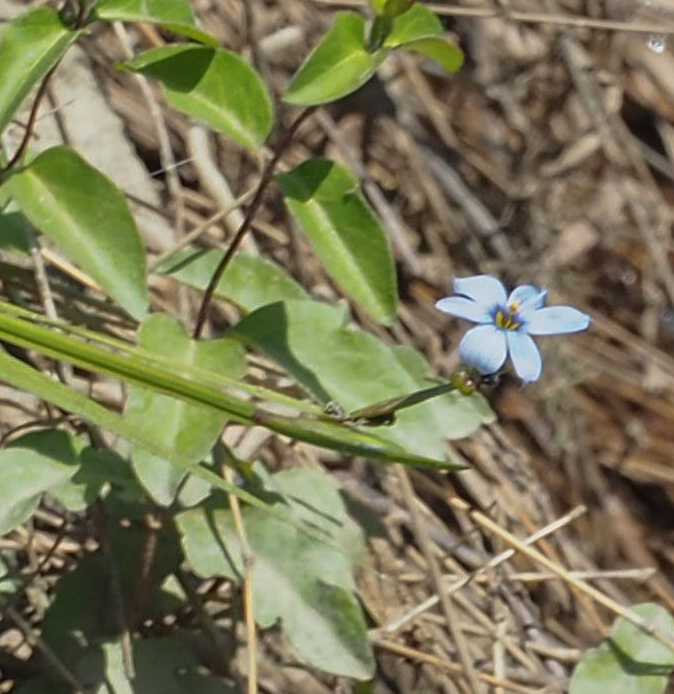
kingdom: Plantae
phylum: Tracheophyta
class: Liliopsida
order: Asparagales
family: Iridaceae
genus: Sisyrinchium
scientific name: Sisyrinchium angustifolium
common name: Narrow-leaf blue-eyed-grass
